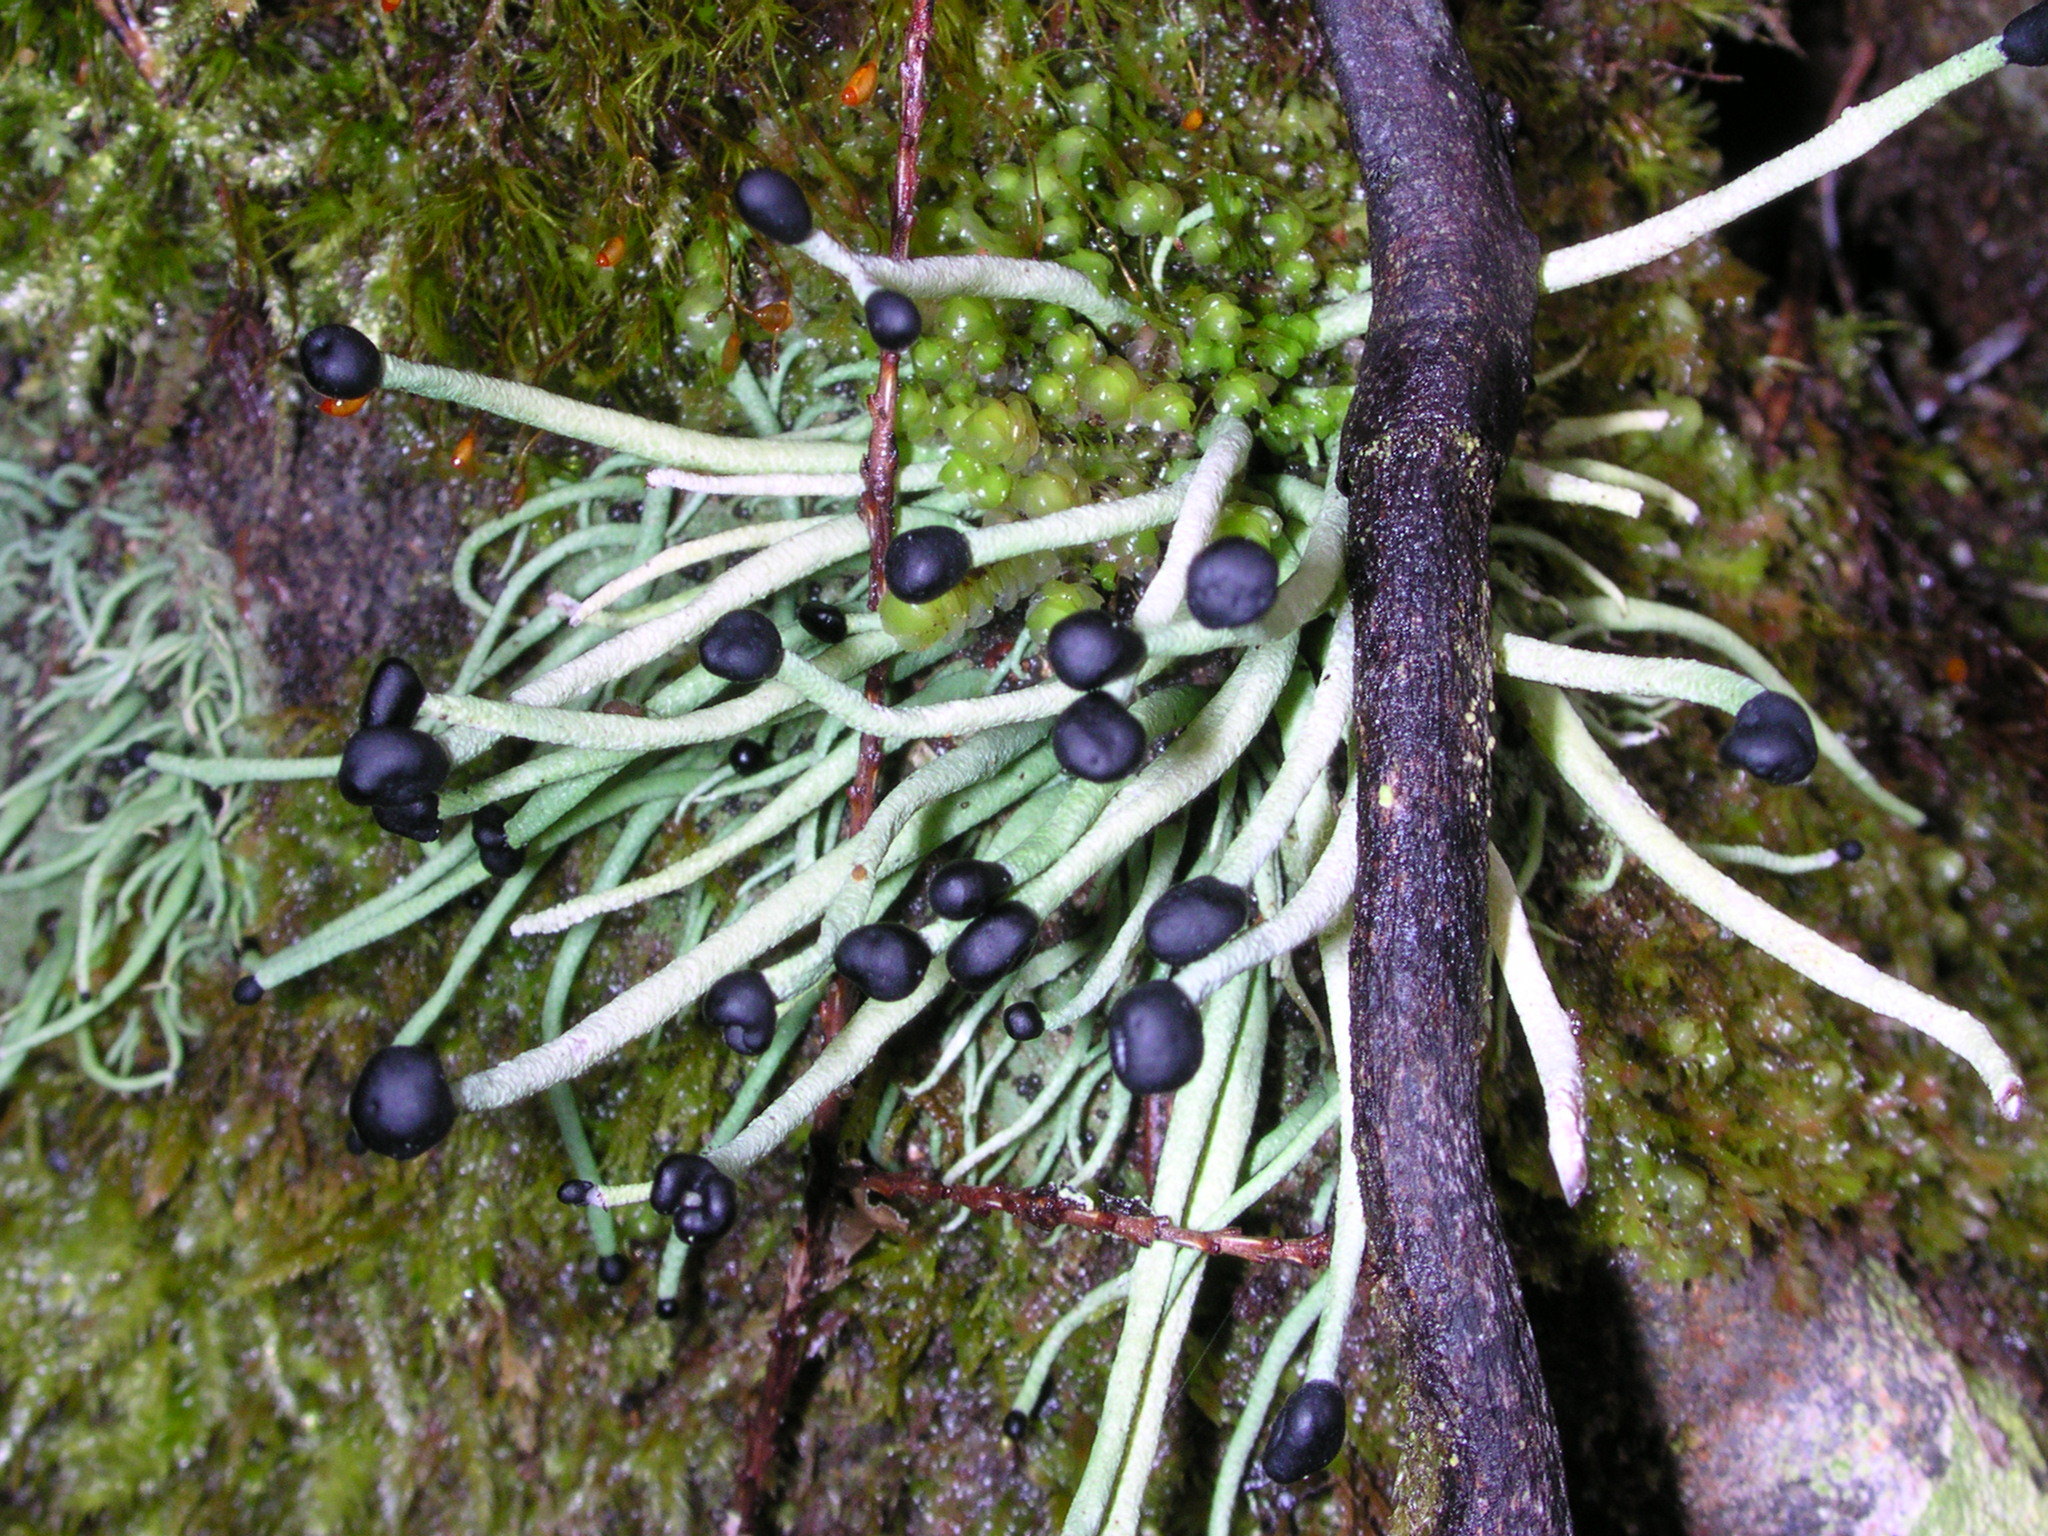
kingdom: Fungi
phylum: Ascomycota
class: Lecanoromycetes
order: Lecanorales
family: Cladoniaceae
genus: Pilophorus
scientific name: Pilophorus acicularis
